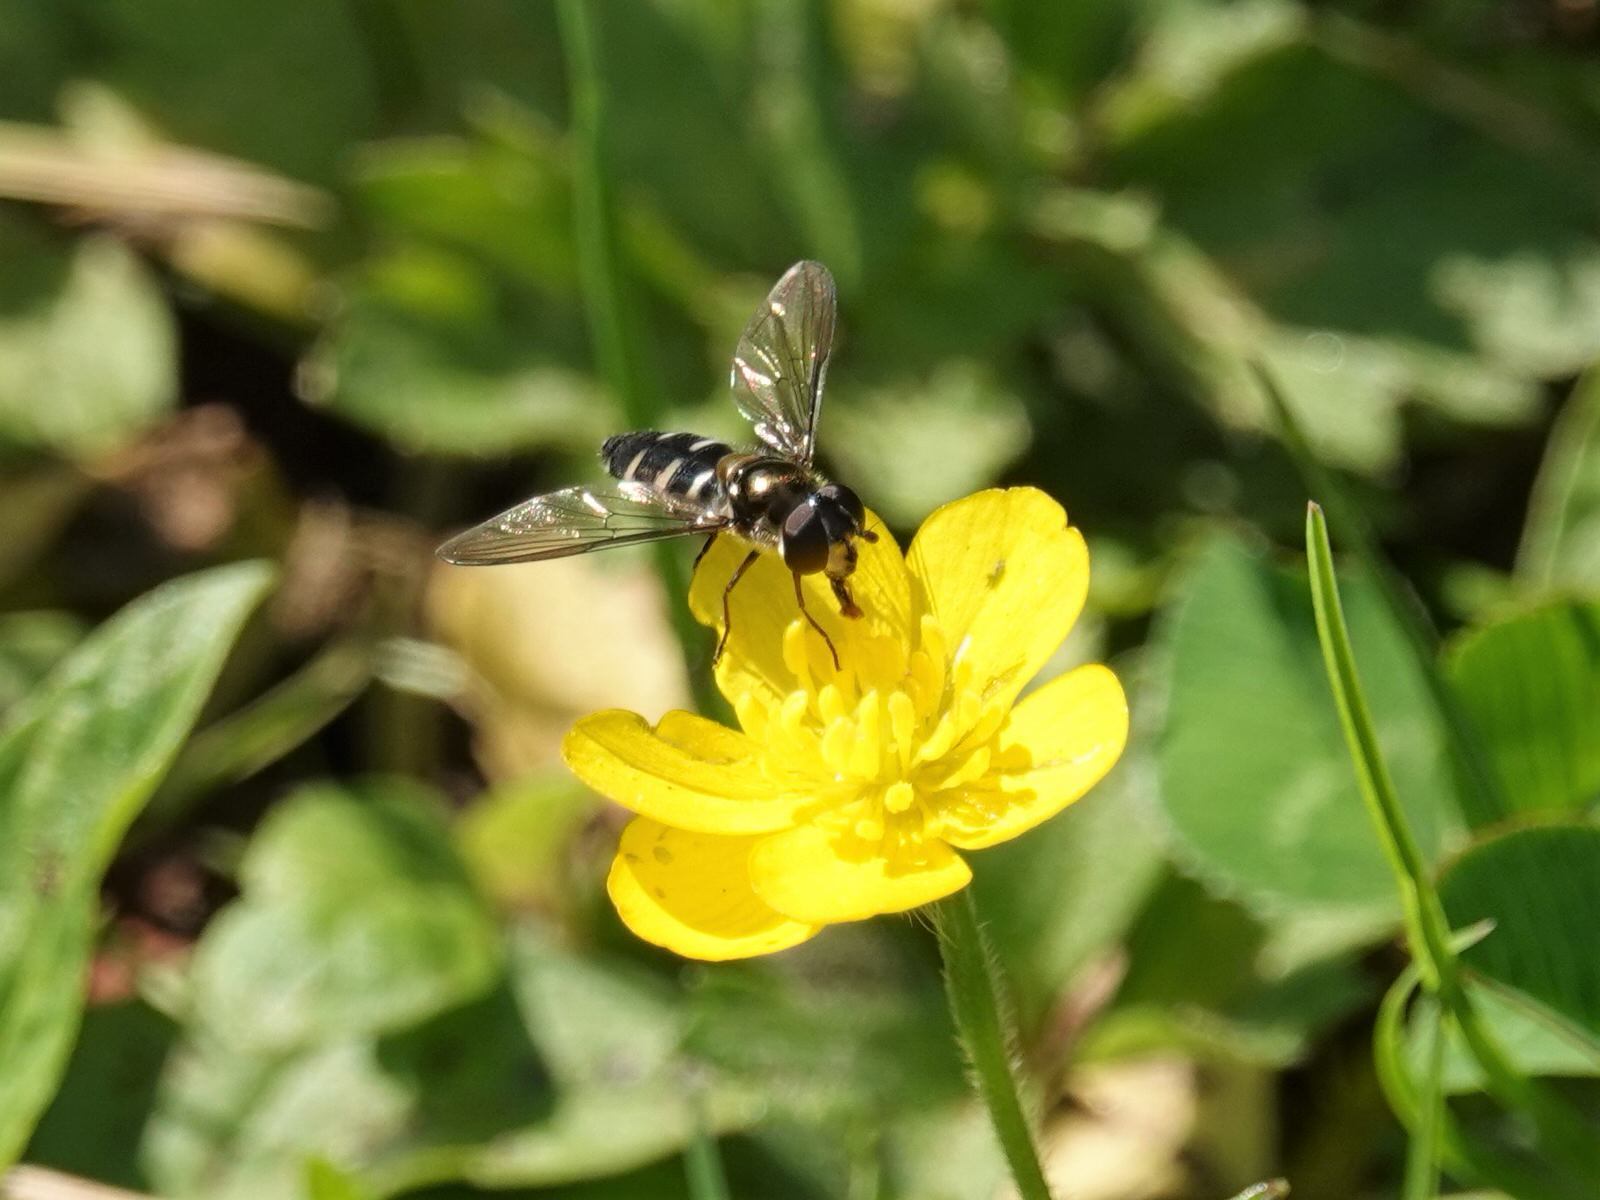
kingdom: Animalia
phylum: Arthropoda
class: Insecta
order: Diptera
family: Syrphidae
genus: Melangyna
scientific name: Melangyna novaezelandiae
